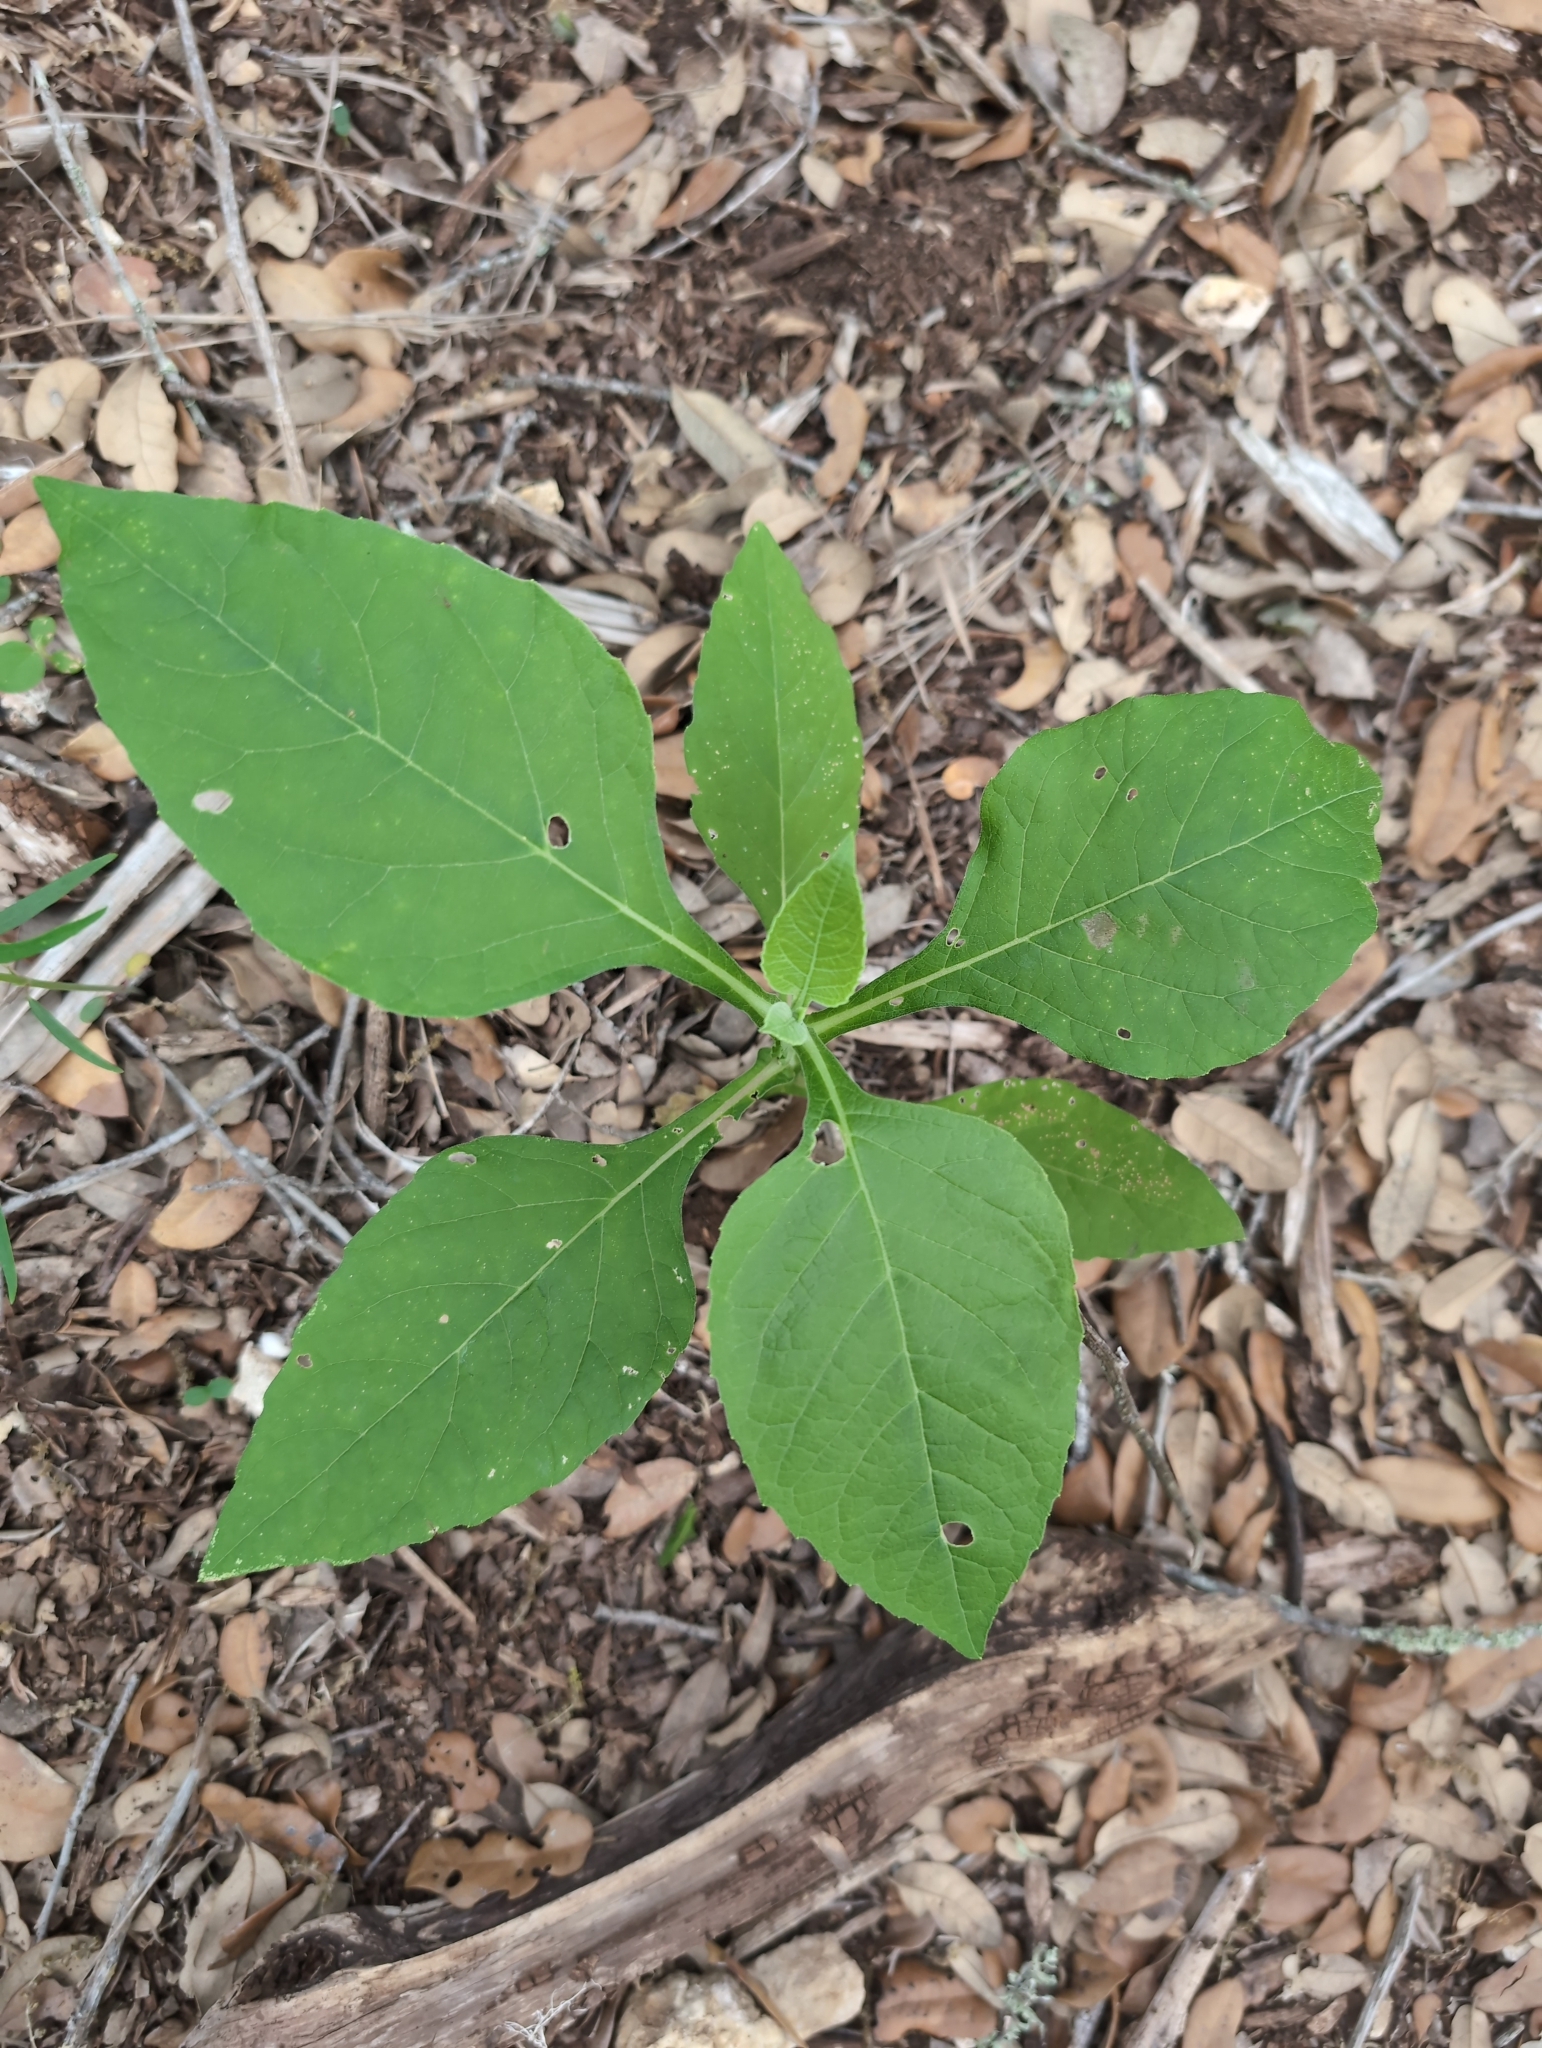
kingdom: Plantae
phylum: Tracheophyta
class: Magnoliopsida
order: Asterales
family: Asteraceae
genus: Verbesina
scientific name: Verbesina virginica
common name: Frostweed
